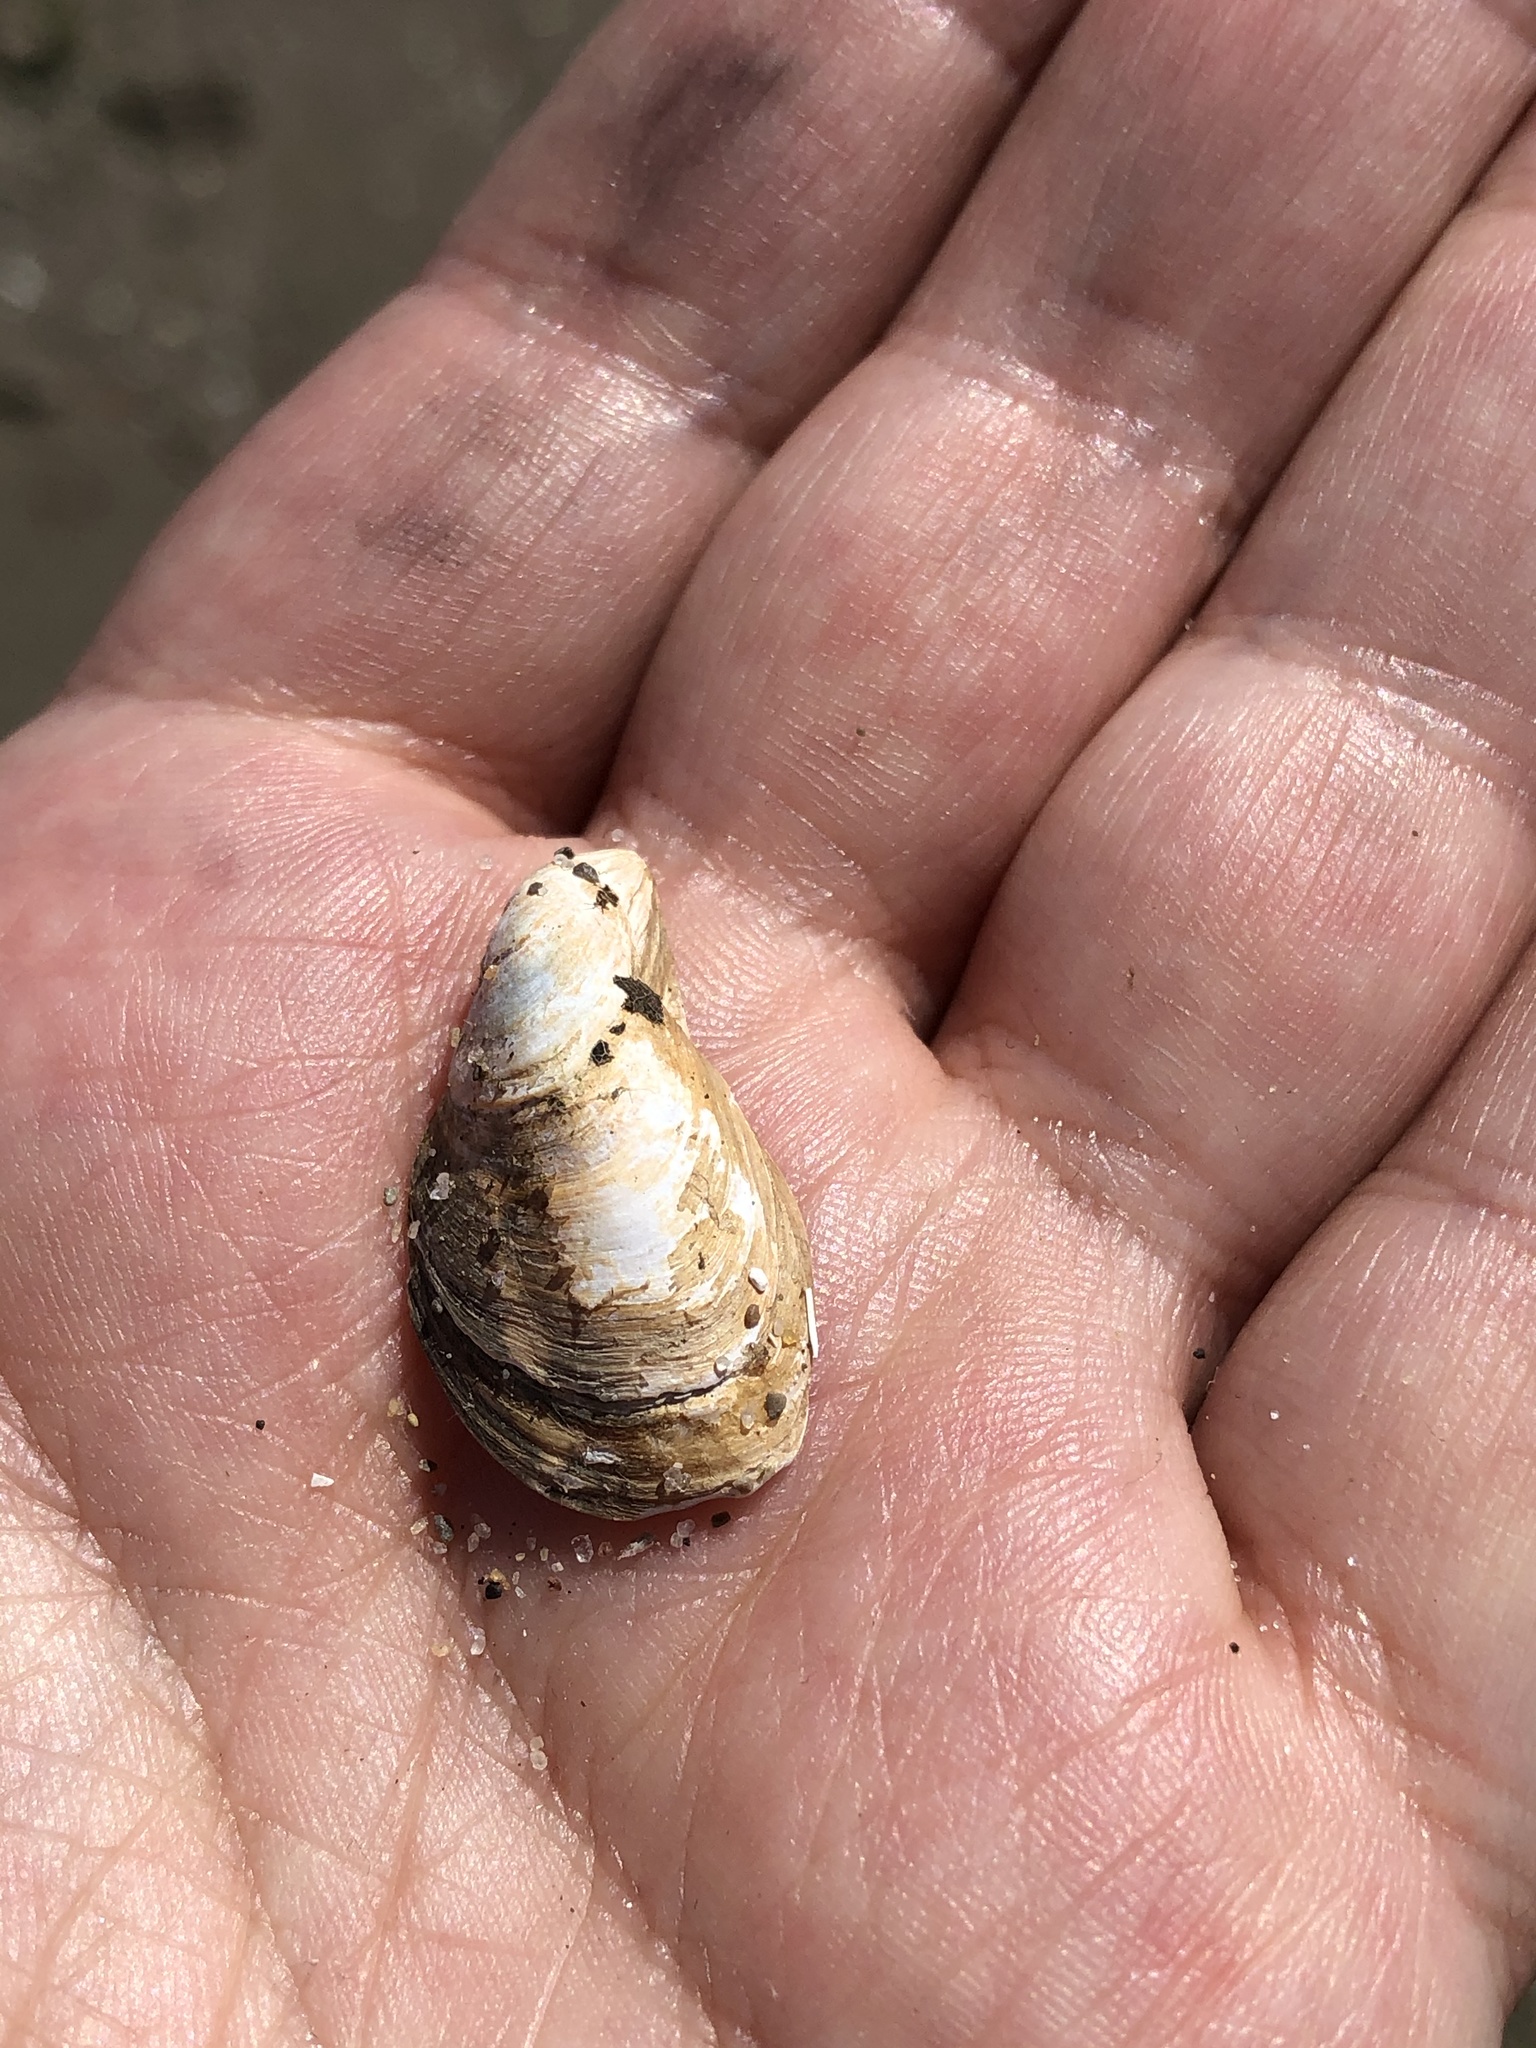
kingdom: Animalia
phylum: Mollusca
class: Bivalvia
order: Myida
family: Dreissenidae
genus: Dreissena
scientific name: Dreissena bugensis
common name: Quagga mussel
